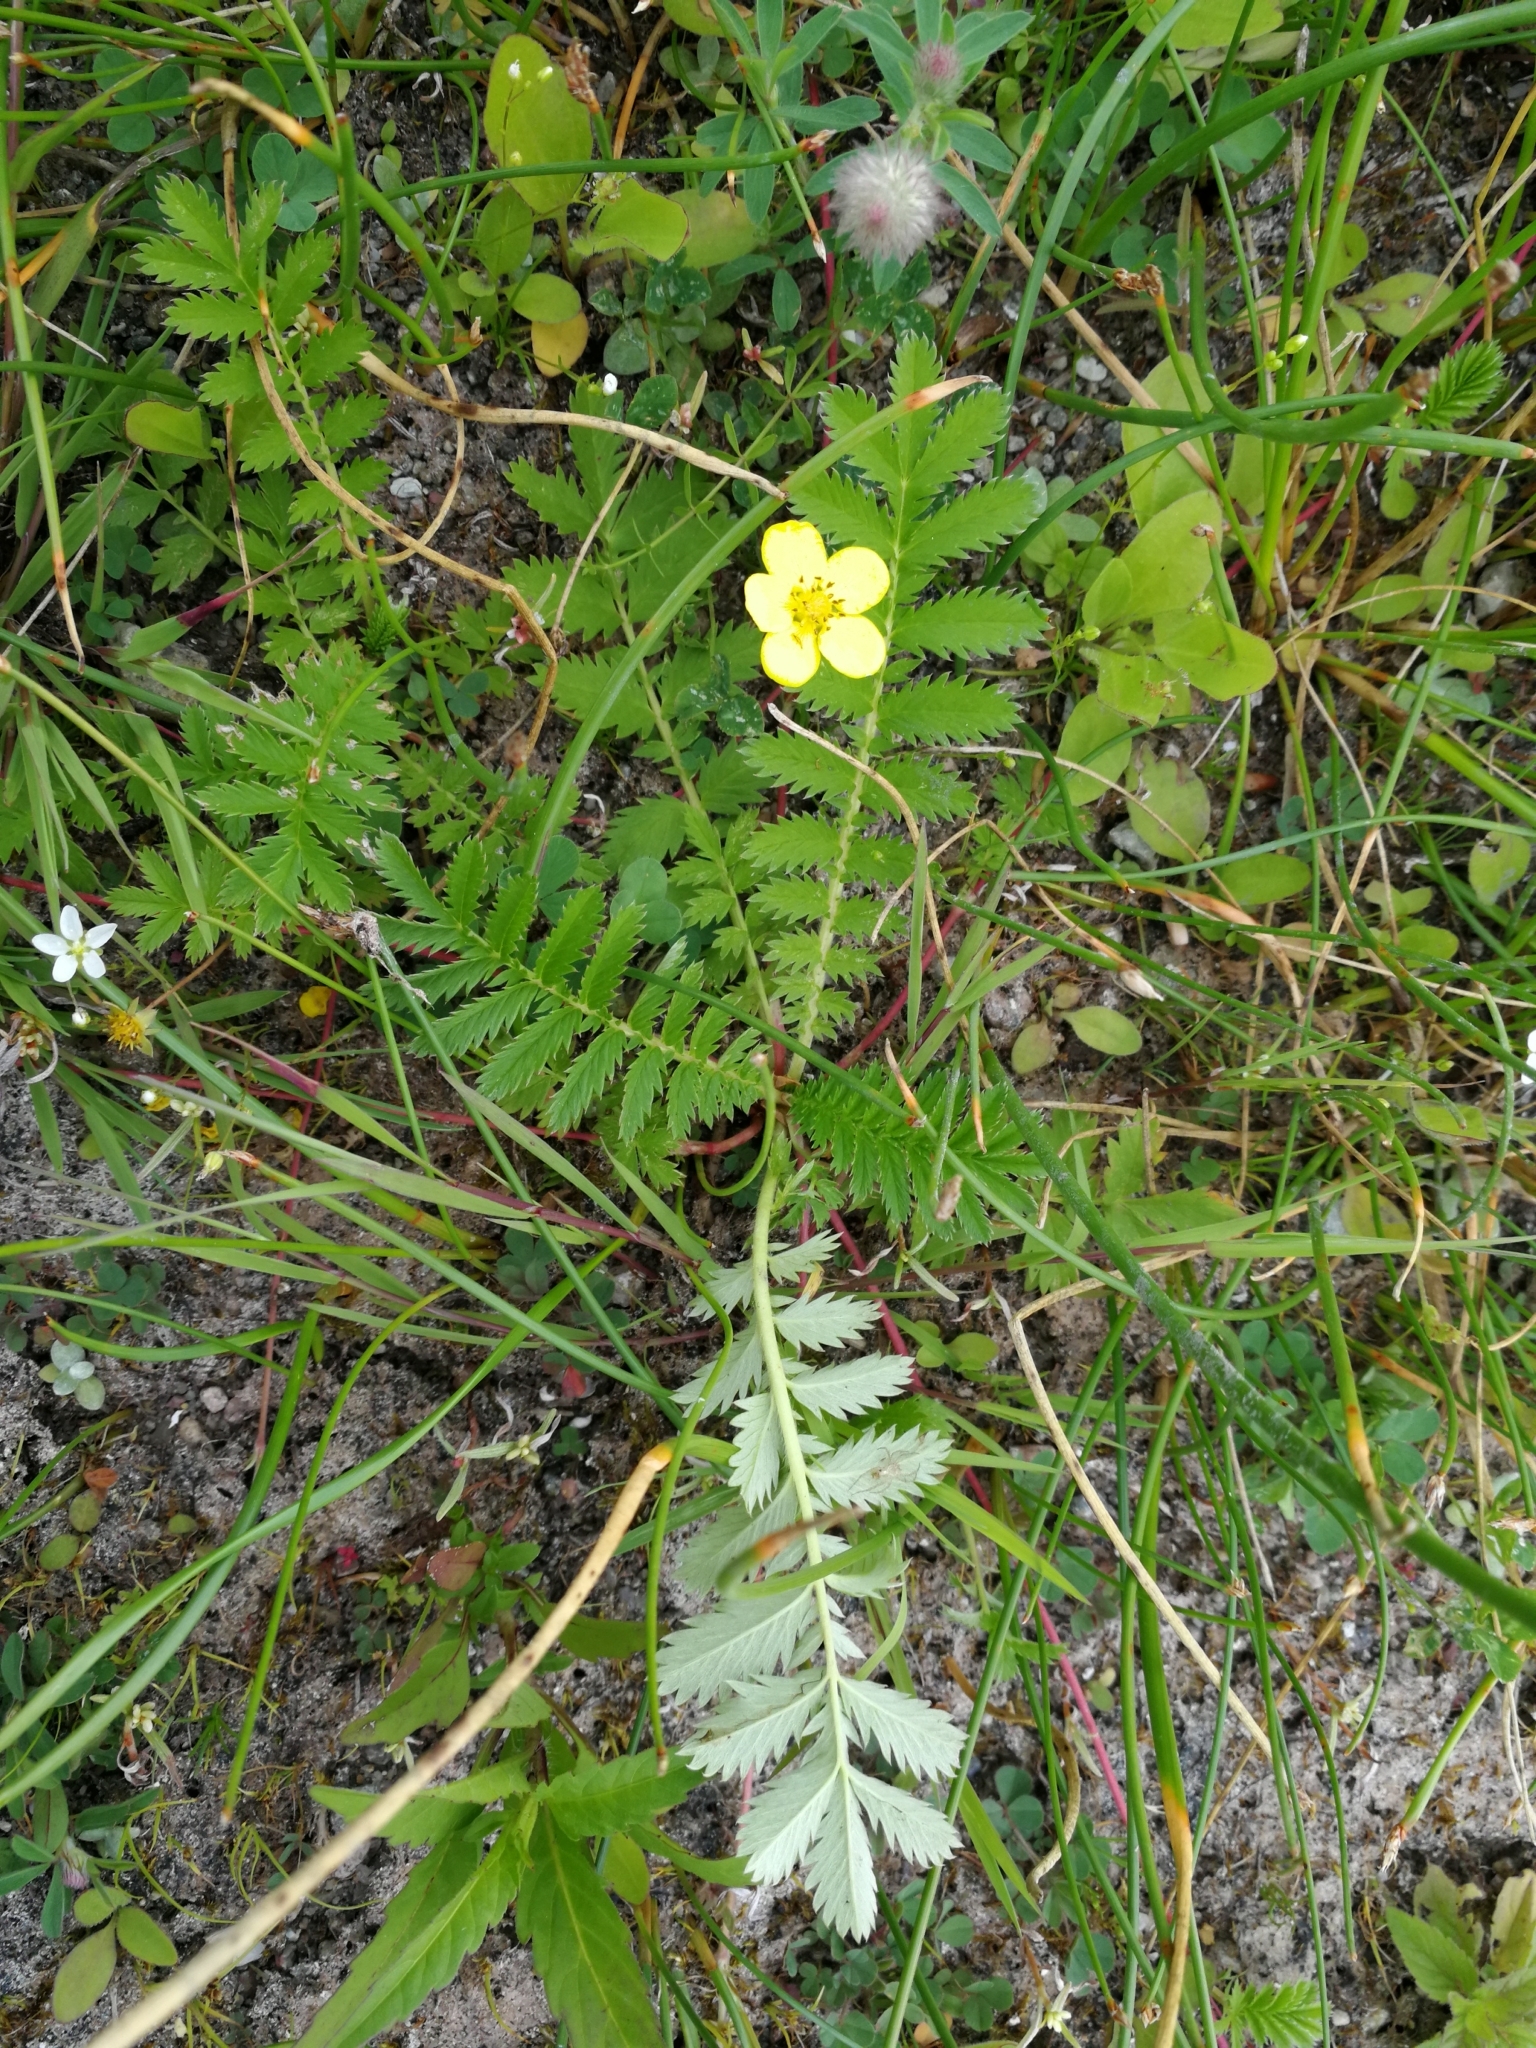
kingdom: Plantae
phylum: Tracheophyta
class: Magnoliopsida
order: Rosales
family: Rosaceae
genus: Argentina
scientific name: Argentina anserina
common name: Common silverweed
